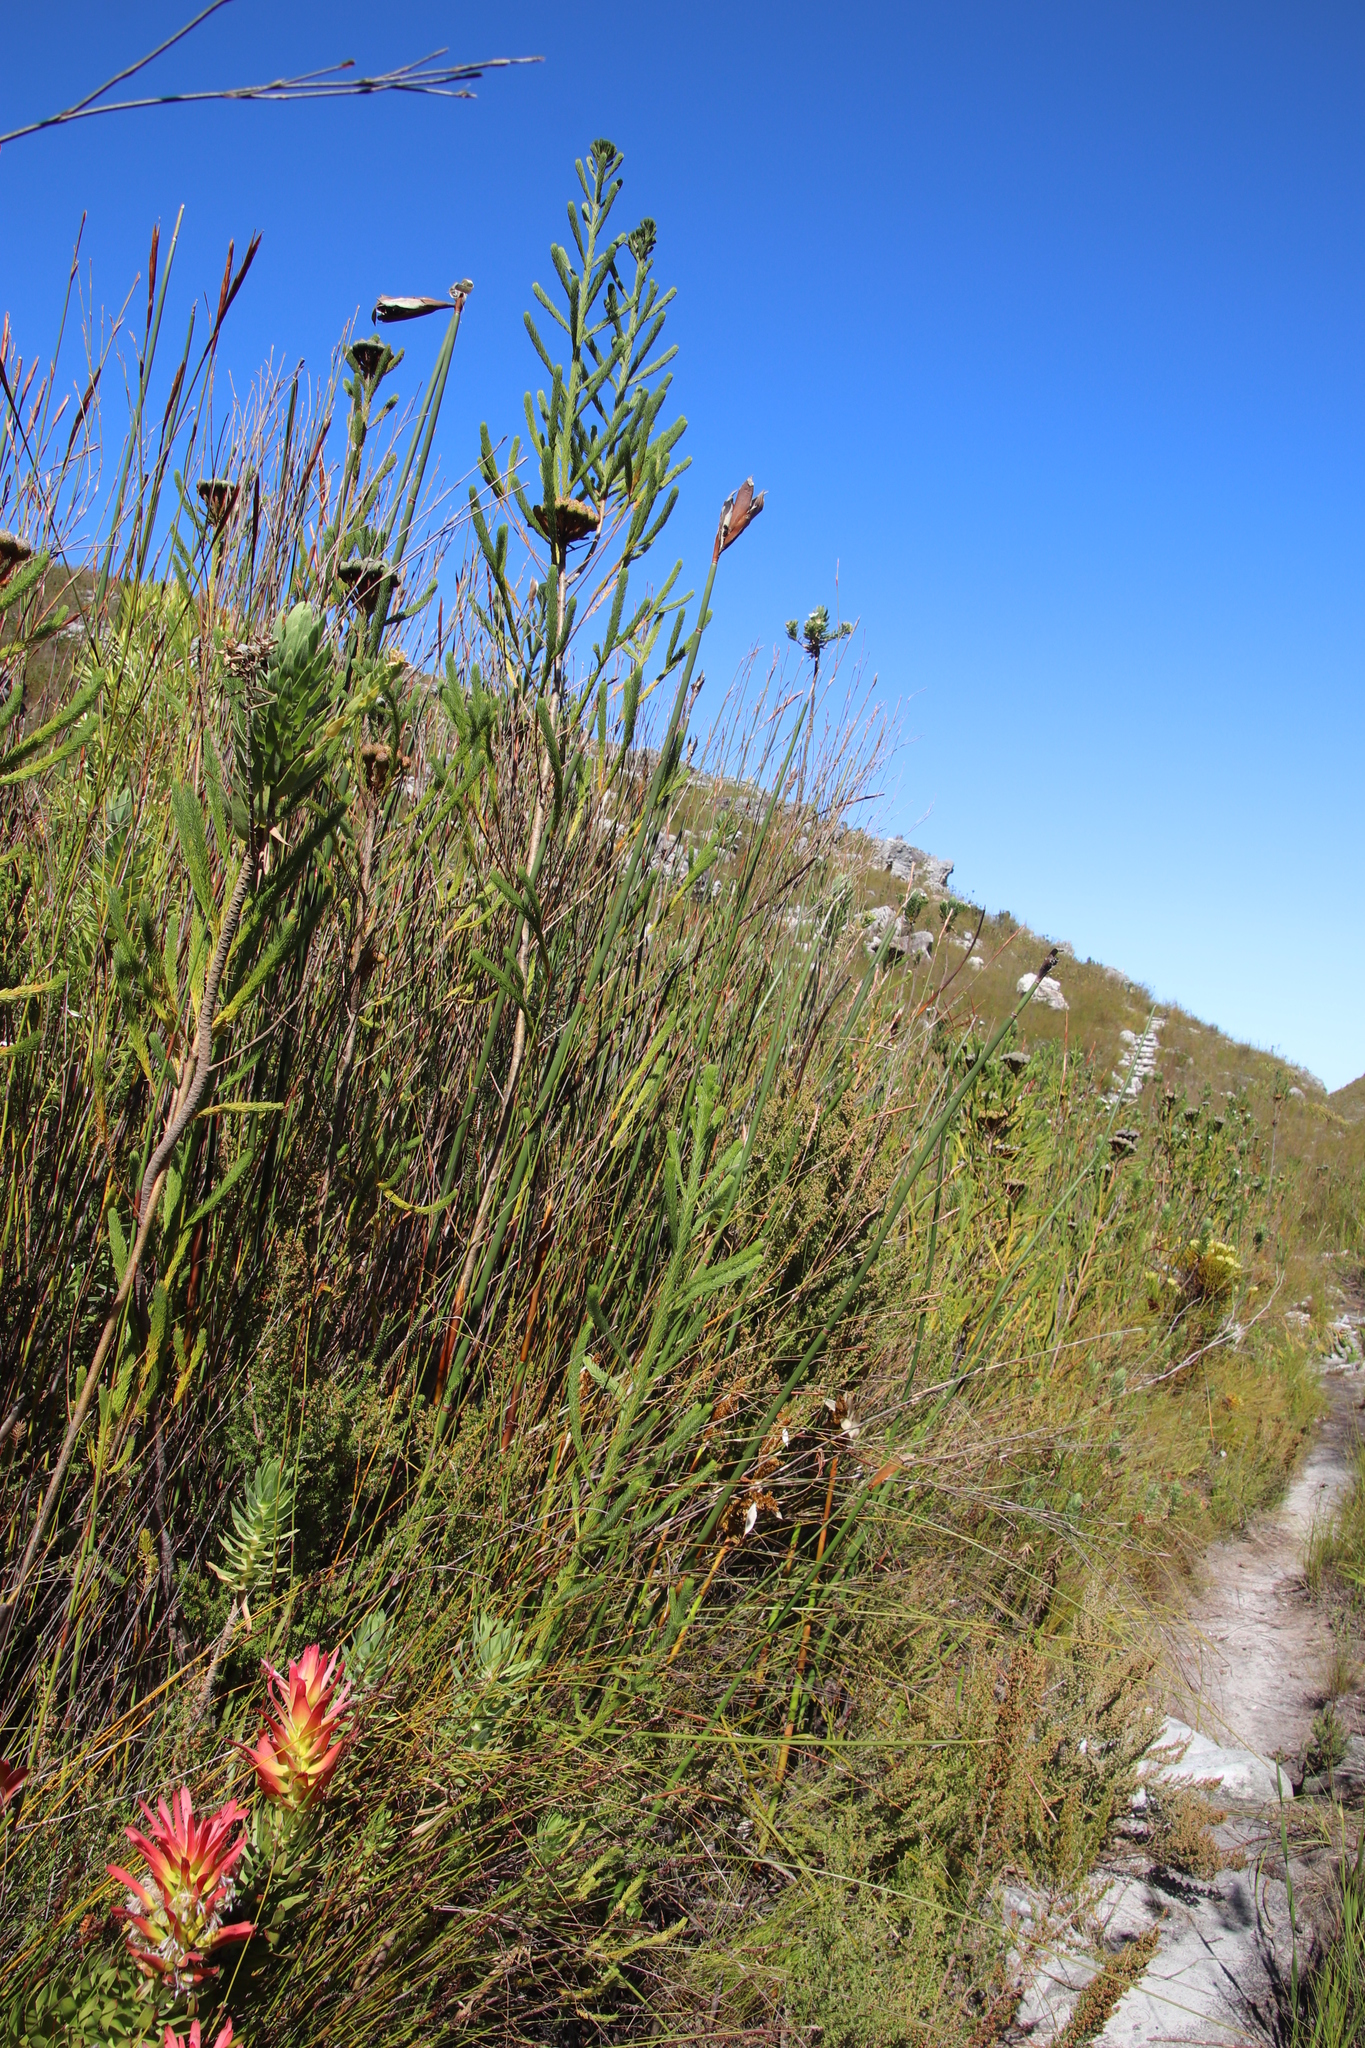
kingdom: Plantae
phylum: Tracheophyta
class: Liliopsida
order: Poales
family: Restionaceae
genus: Elegia
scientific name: Elegia mucronata
